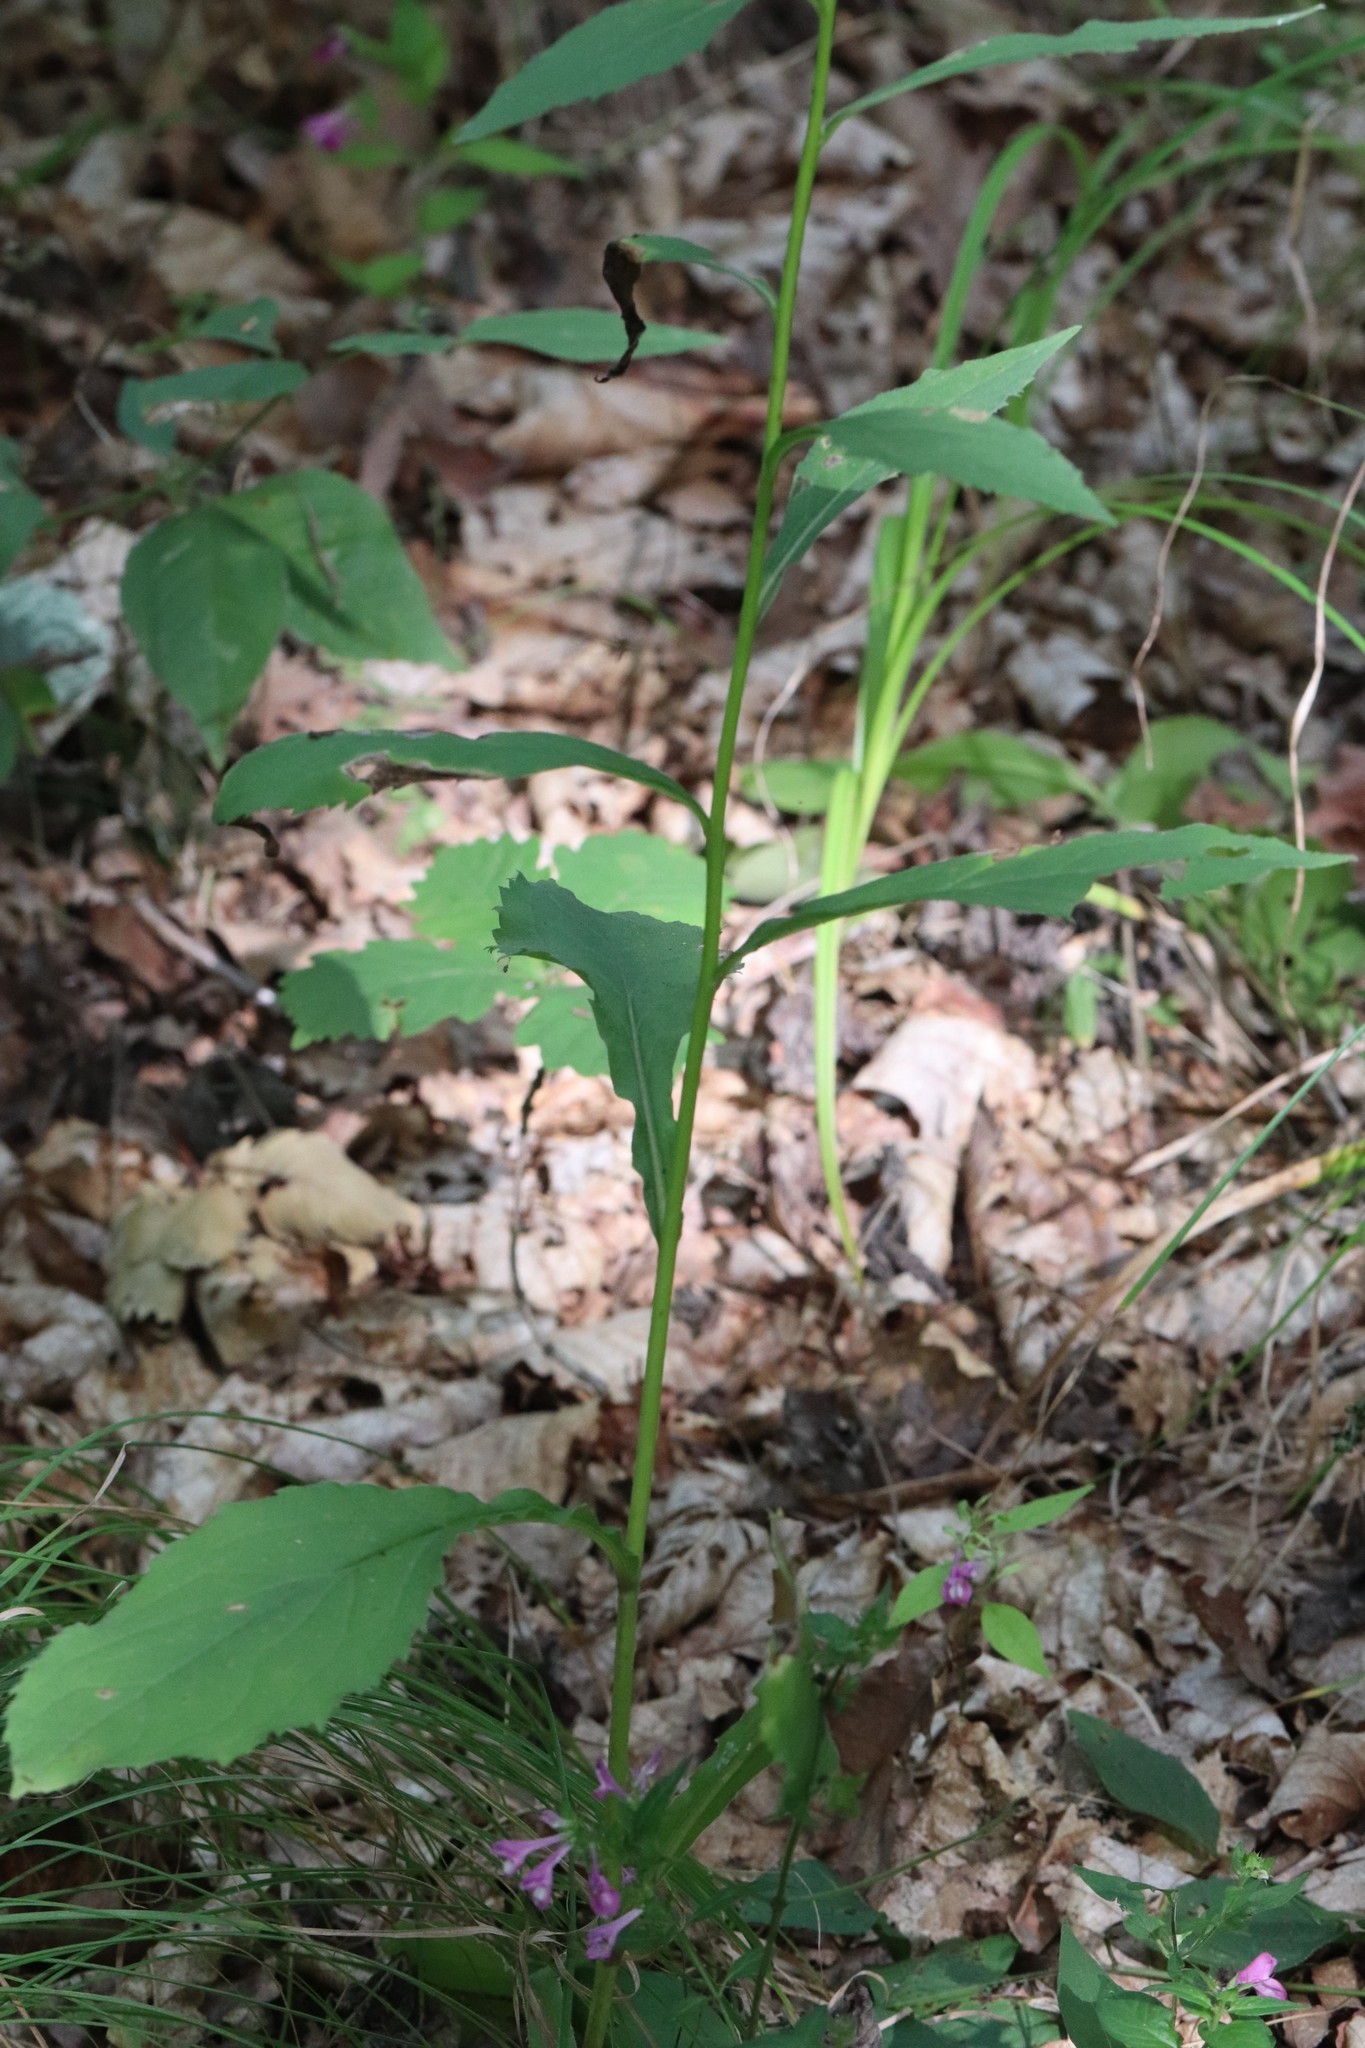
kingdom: Plantae
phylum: Tracheophyta
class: Magnoliopsida
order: Asterales
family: Asteraceae
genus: Solidago
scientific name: Solidago decurrens
